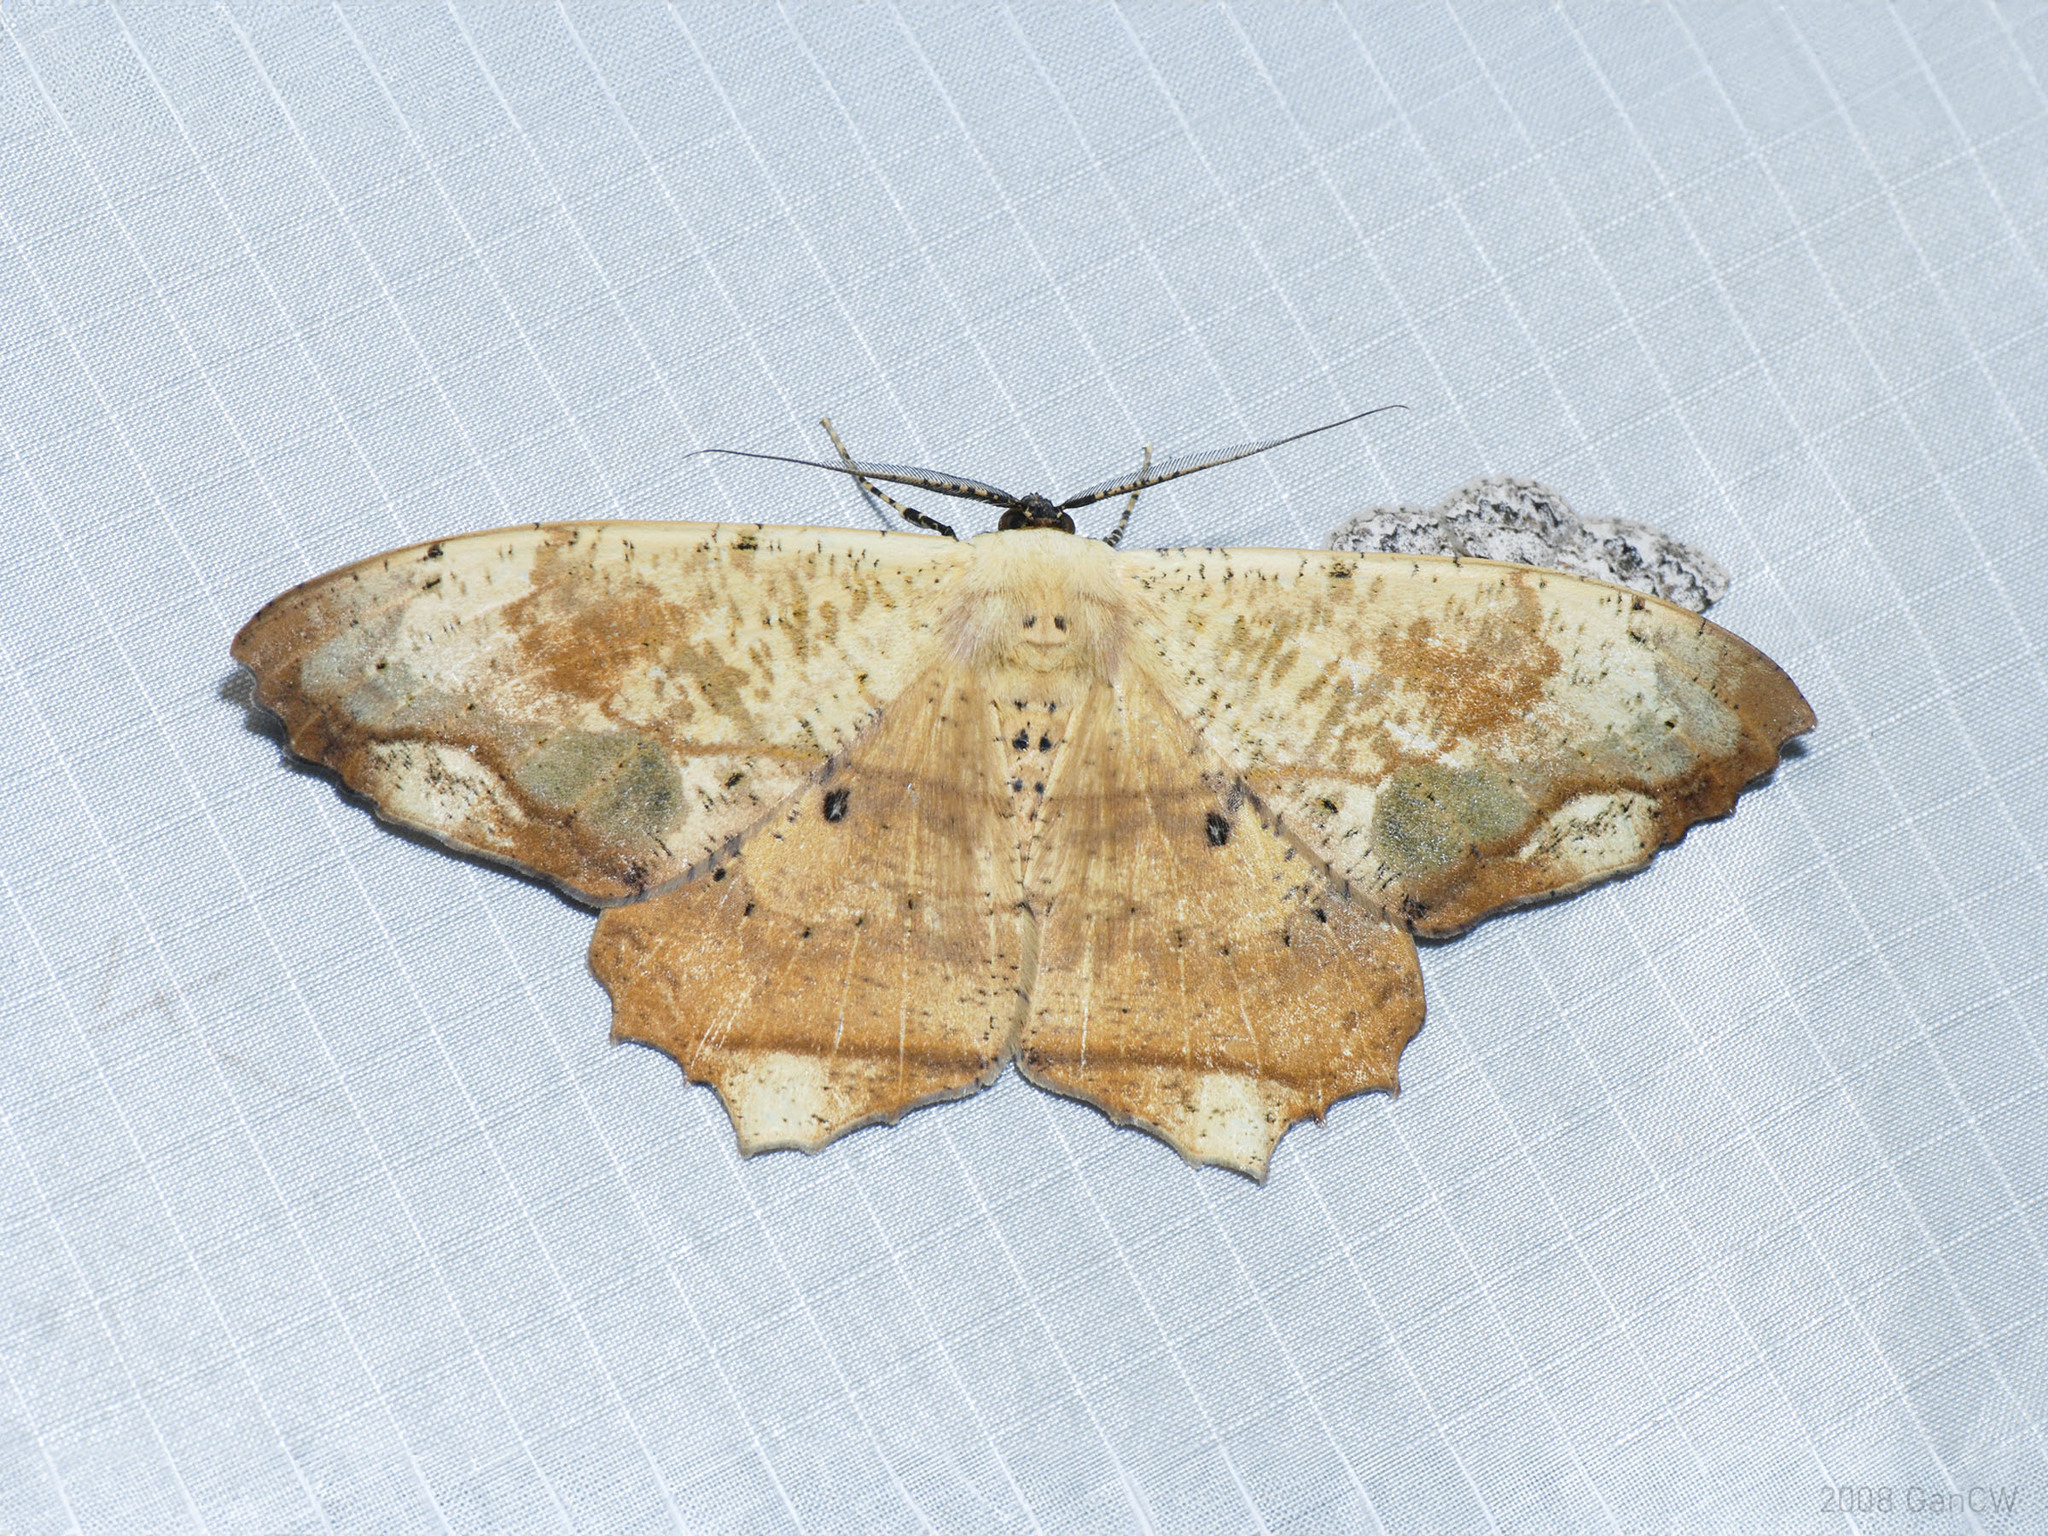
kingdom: Animalia
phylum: Arthropoda
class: Insecta
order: Lepidoptera
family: Geometridae
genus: Chorodna
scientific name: Chorodna pallidularia
